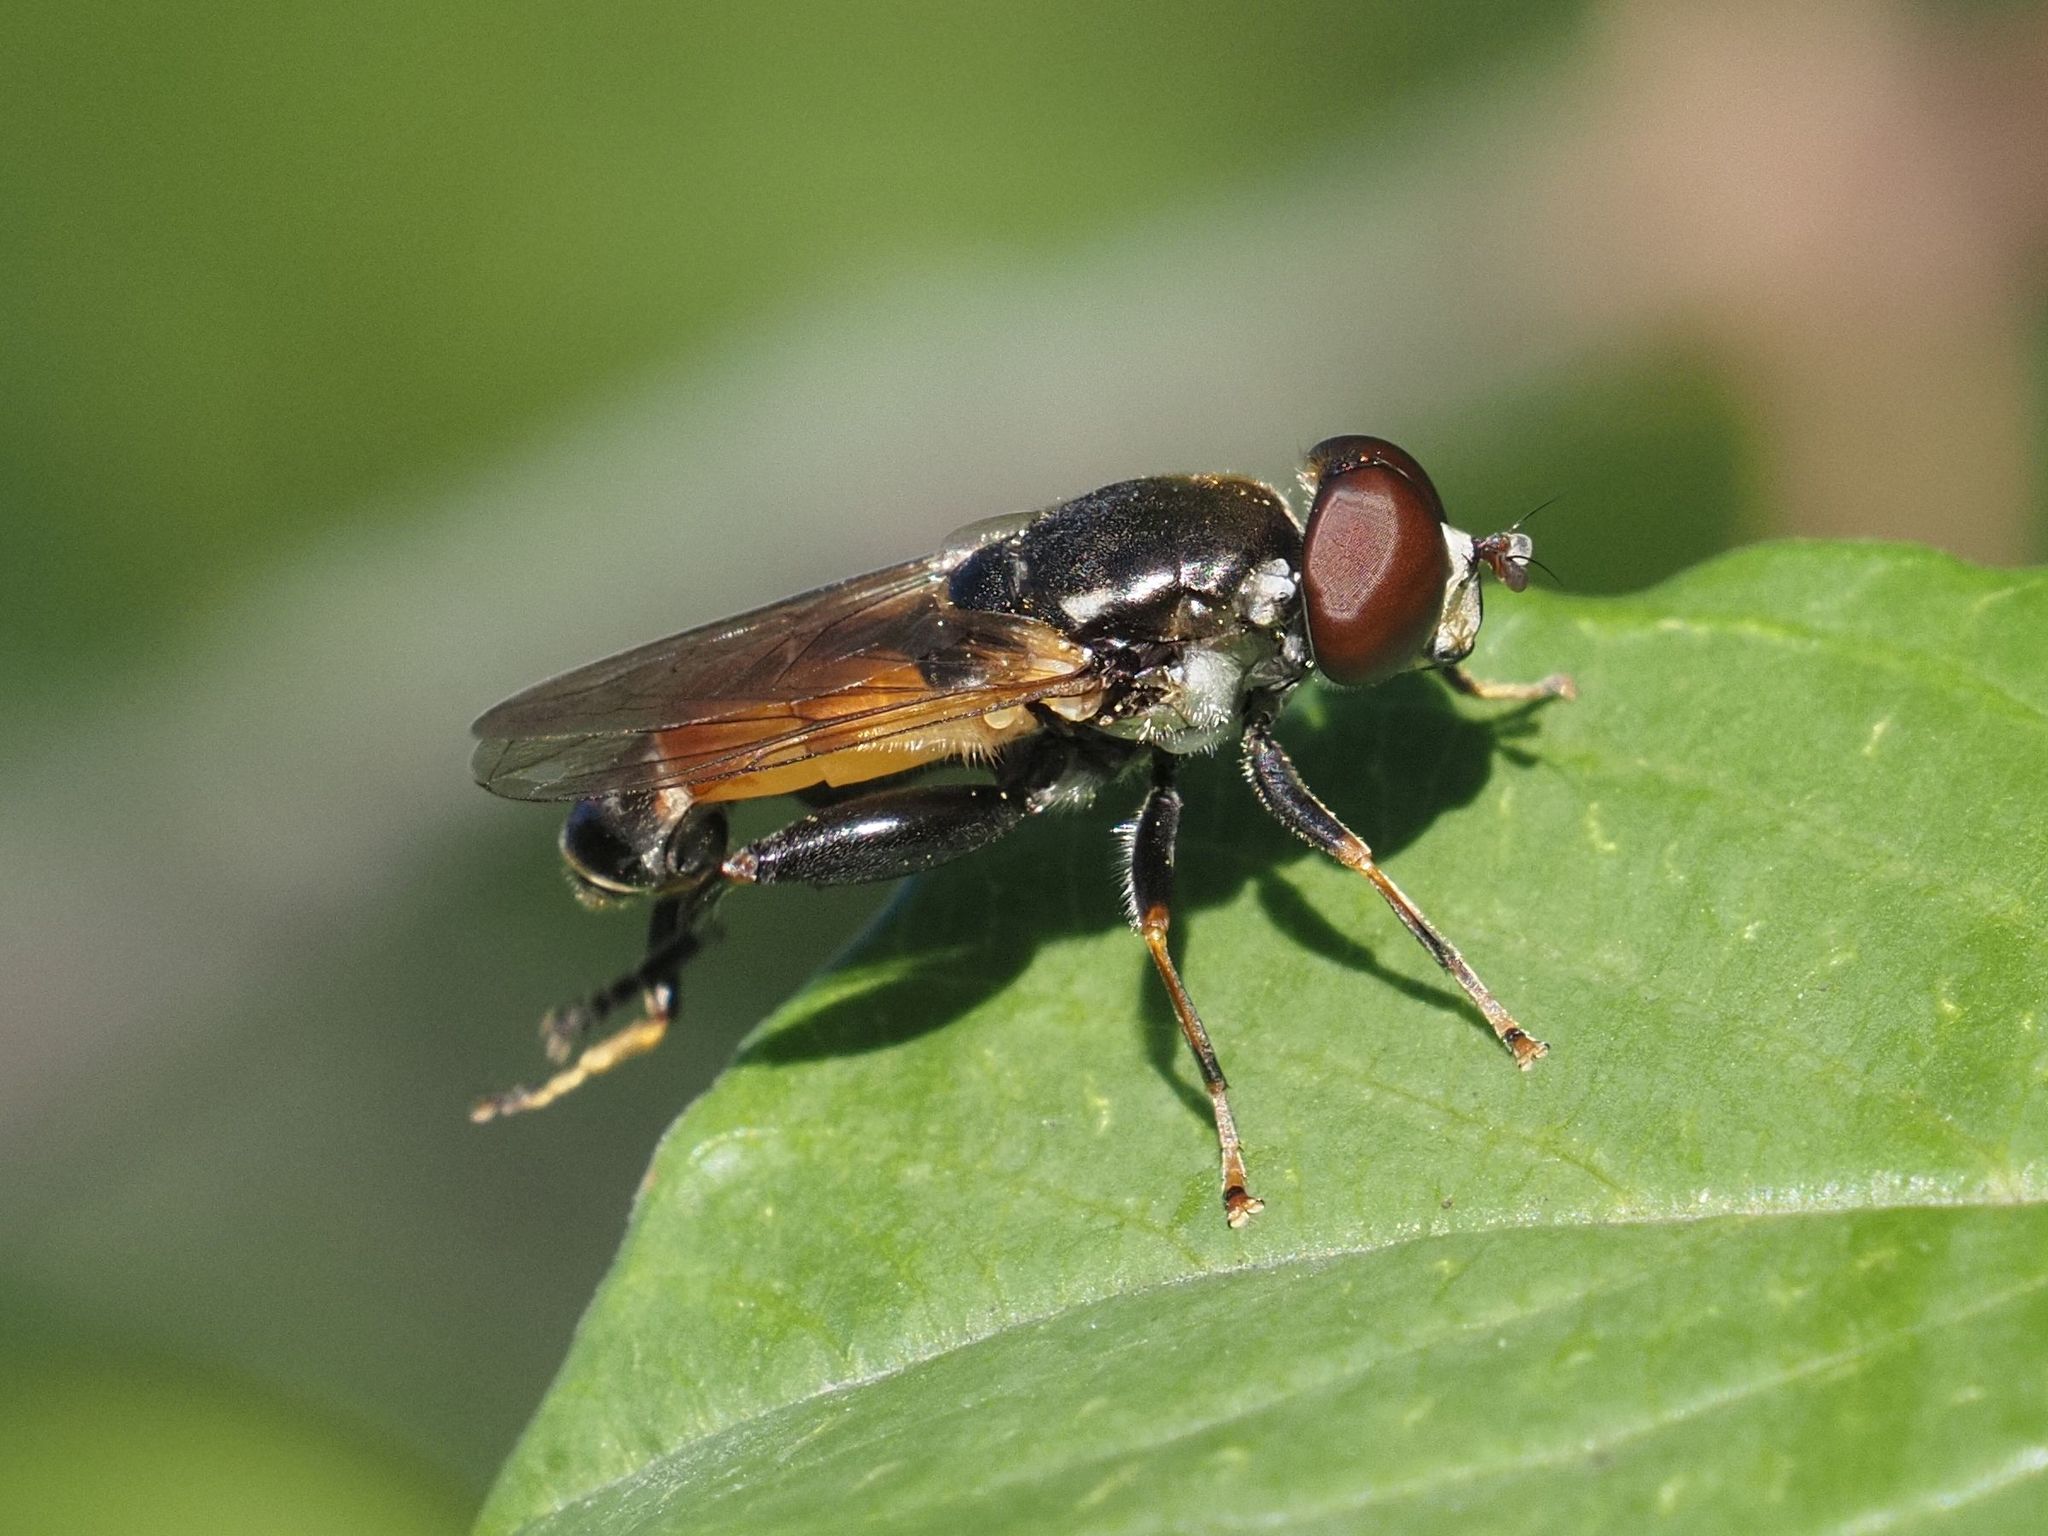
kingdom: Animalia
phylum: Arthropoda
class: Insecta
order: Diptera
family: Syrphidae
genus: Tropidia
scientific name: Tropidia scita
